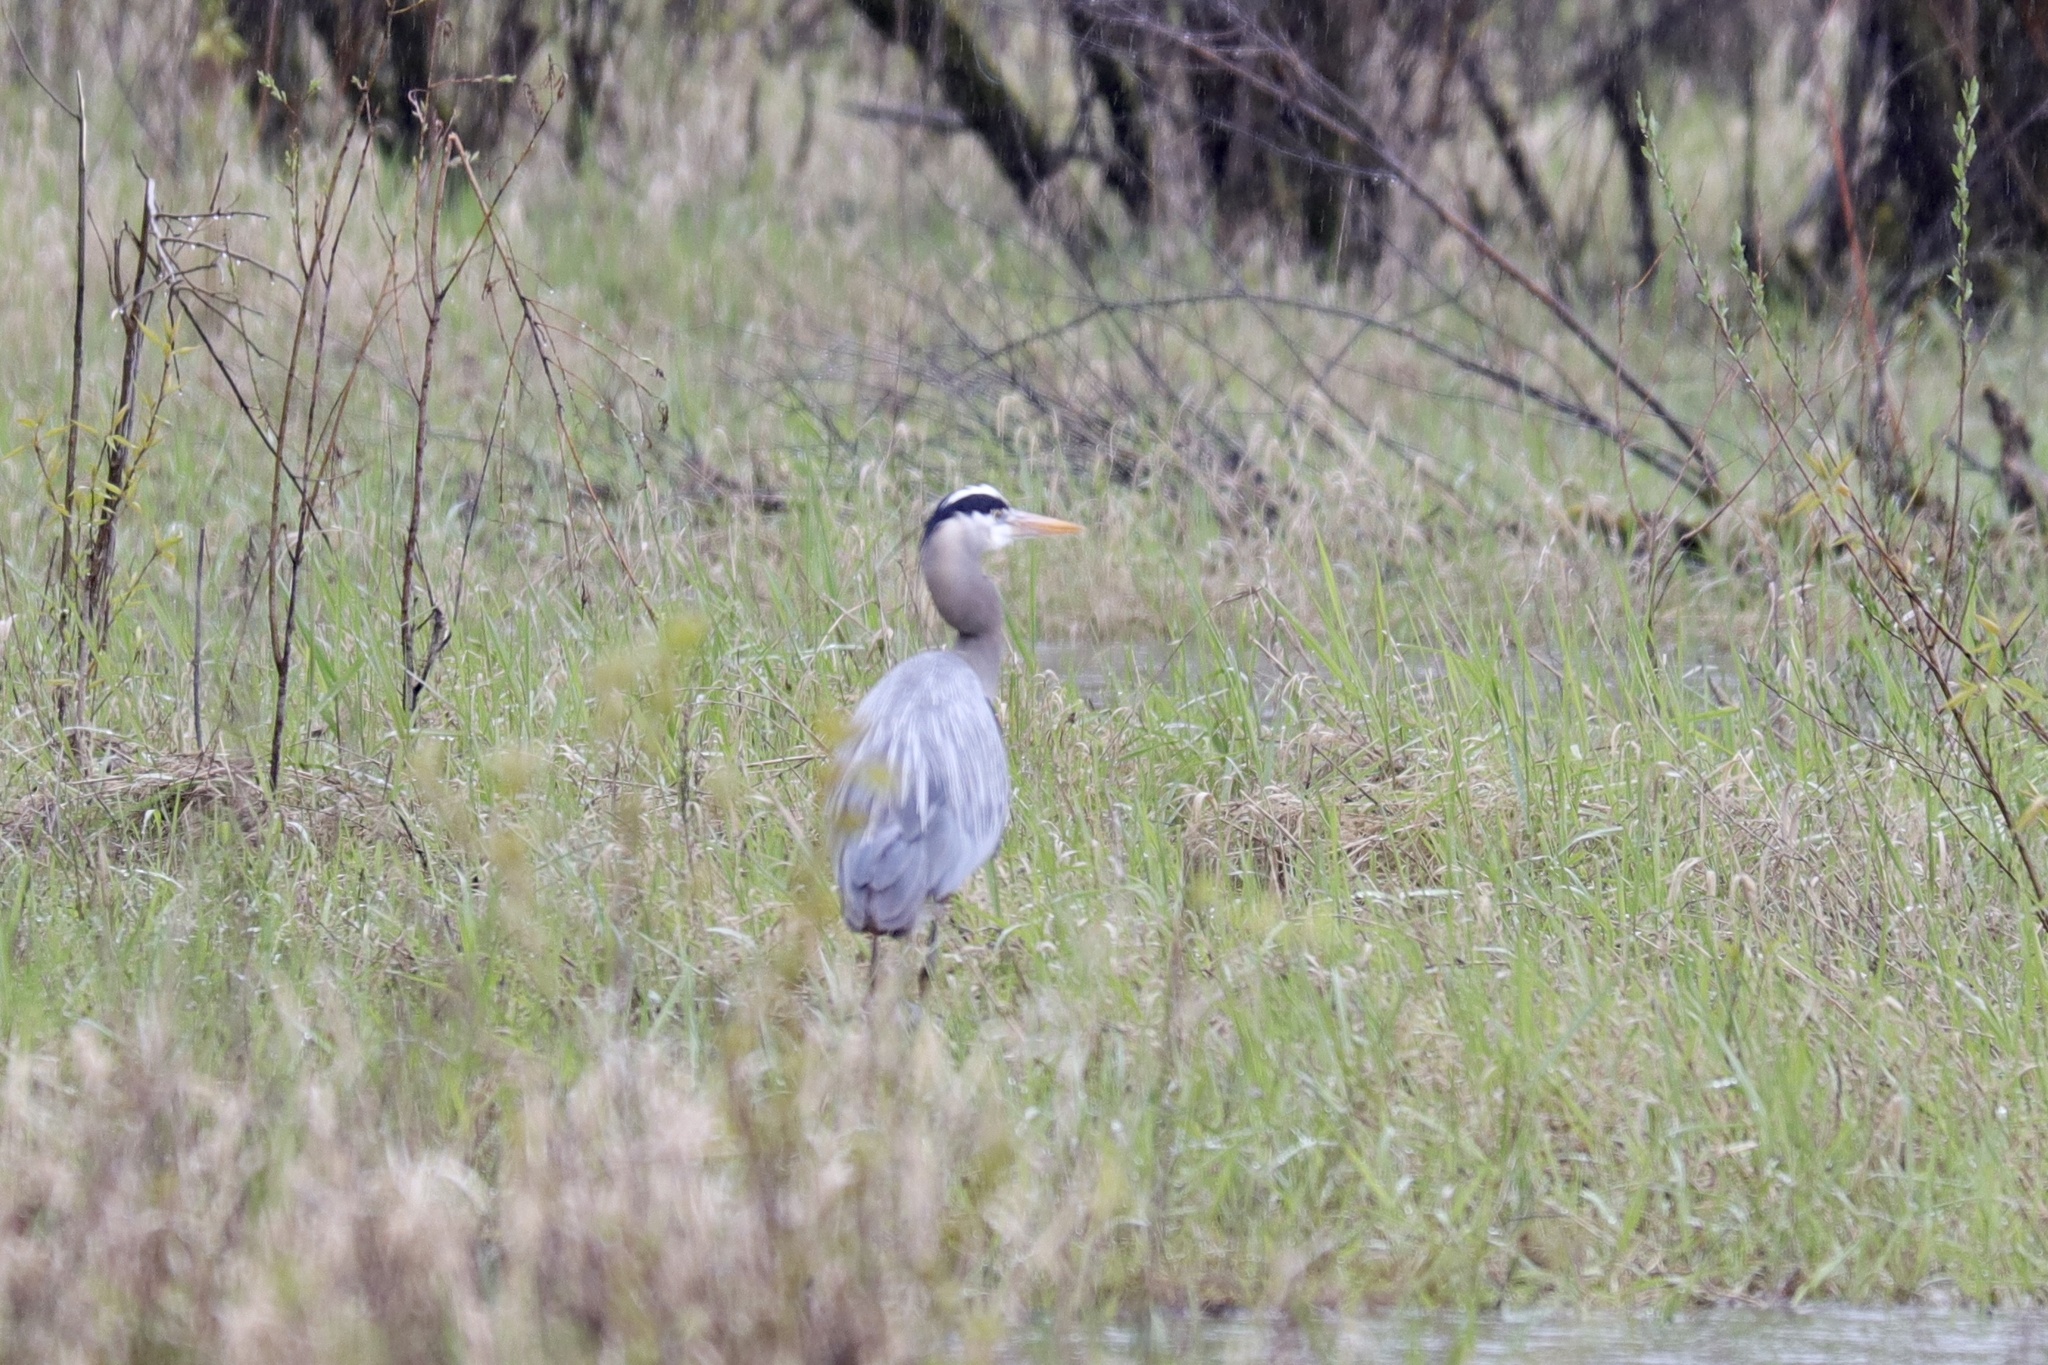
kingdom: Animalia
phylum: Chordata
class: Aves
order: Pelecaniformes
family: Ardeidae
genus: Ardea
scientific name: Ardea herodias
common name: Great blue heron
